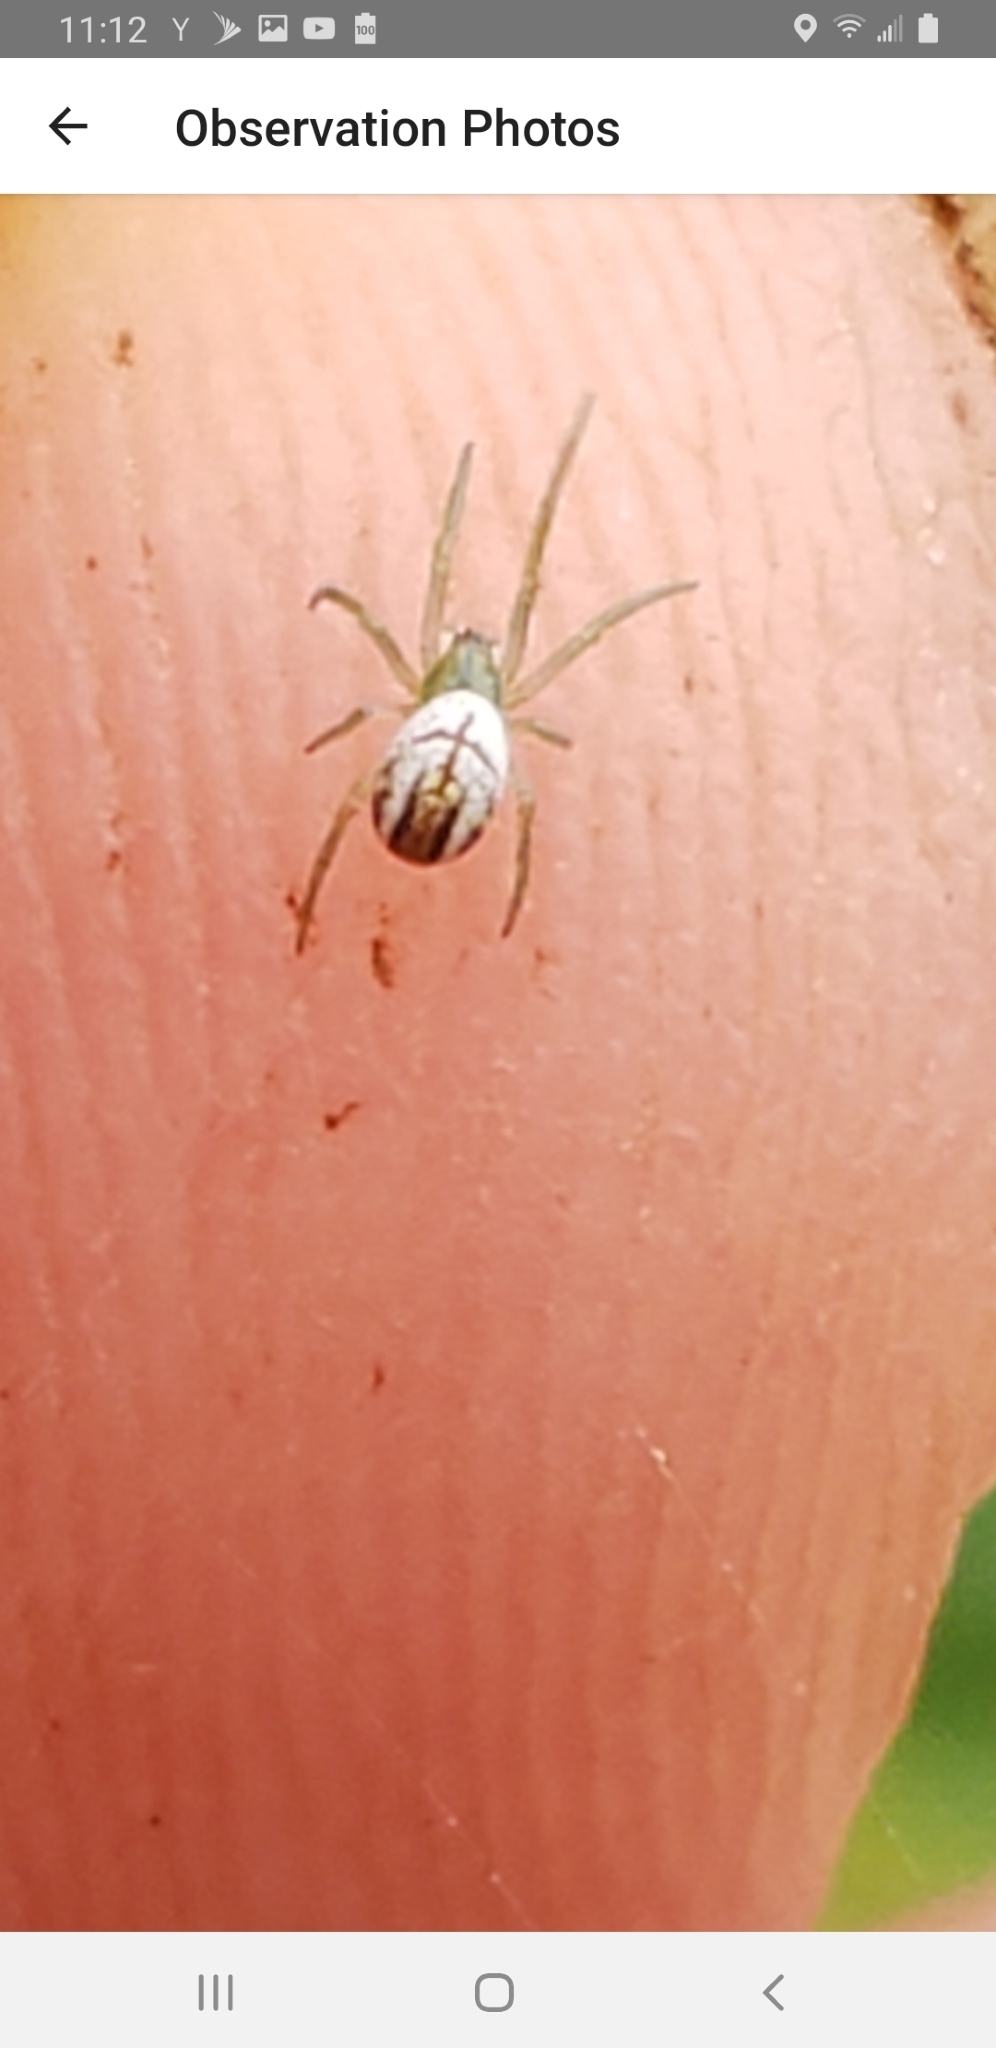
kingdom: Animalia
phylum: Arthropoda
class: Arachnida
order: Araneae
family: Araneidae
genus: Mangora
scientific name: Mangora gibberosa
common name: Lined orbweaver
